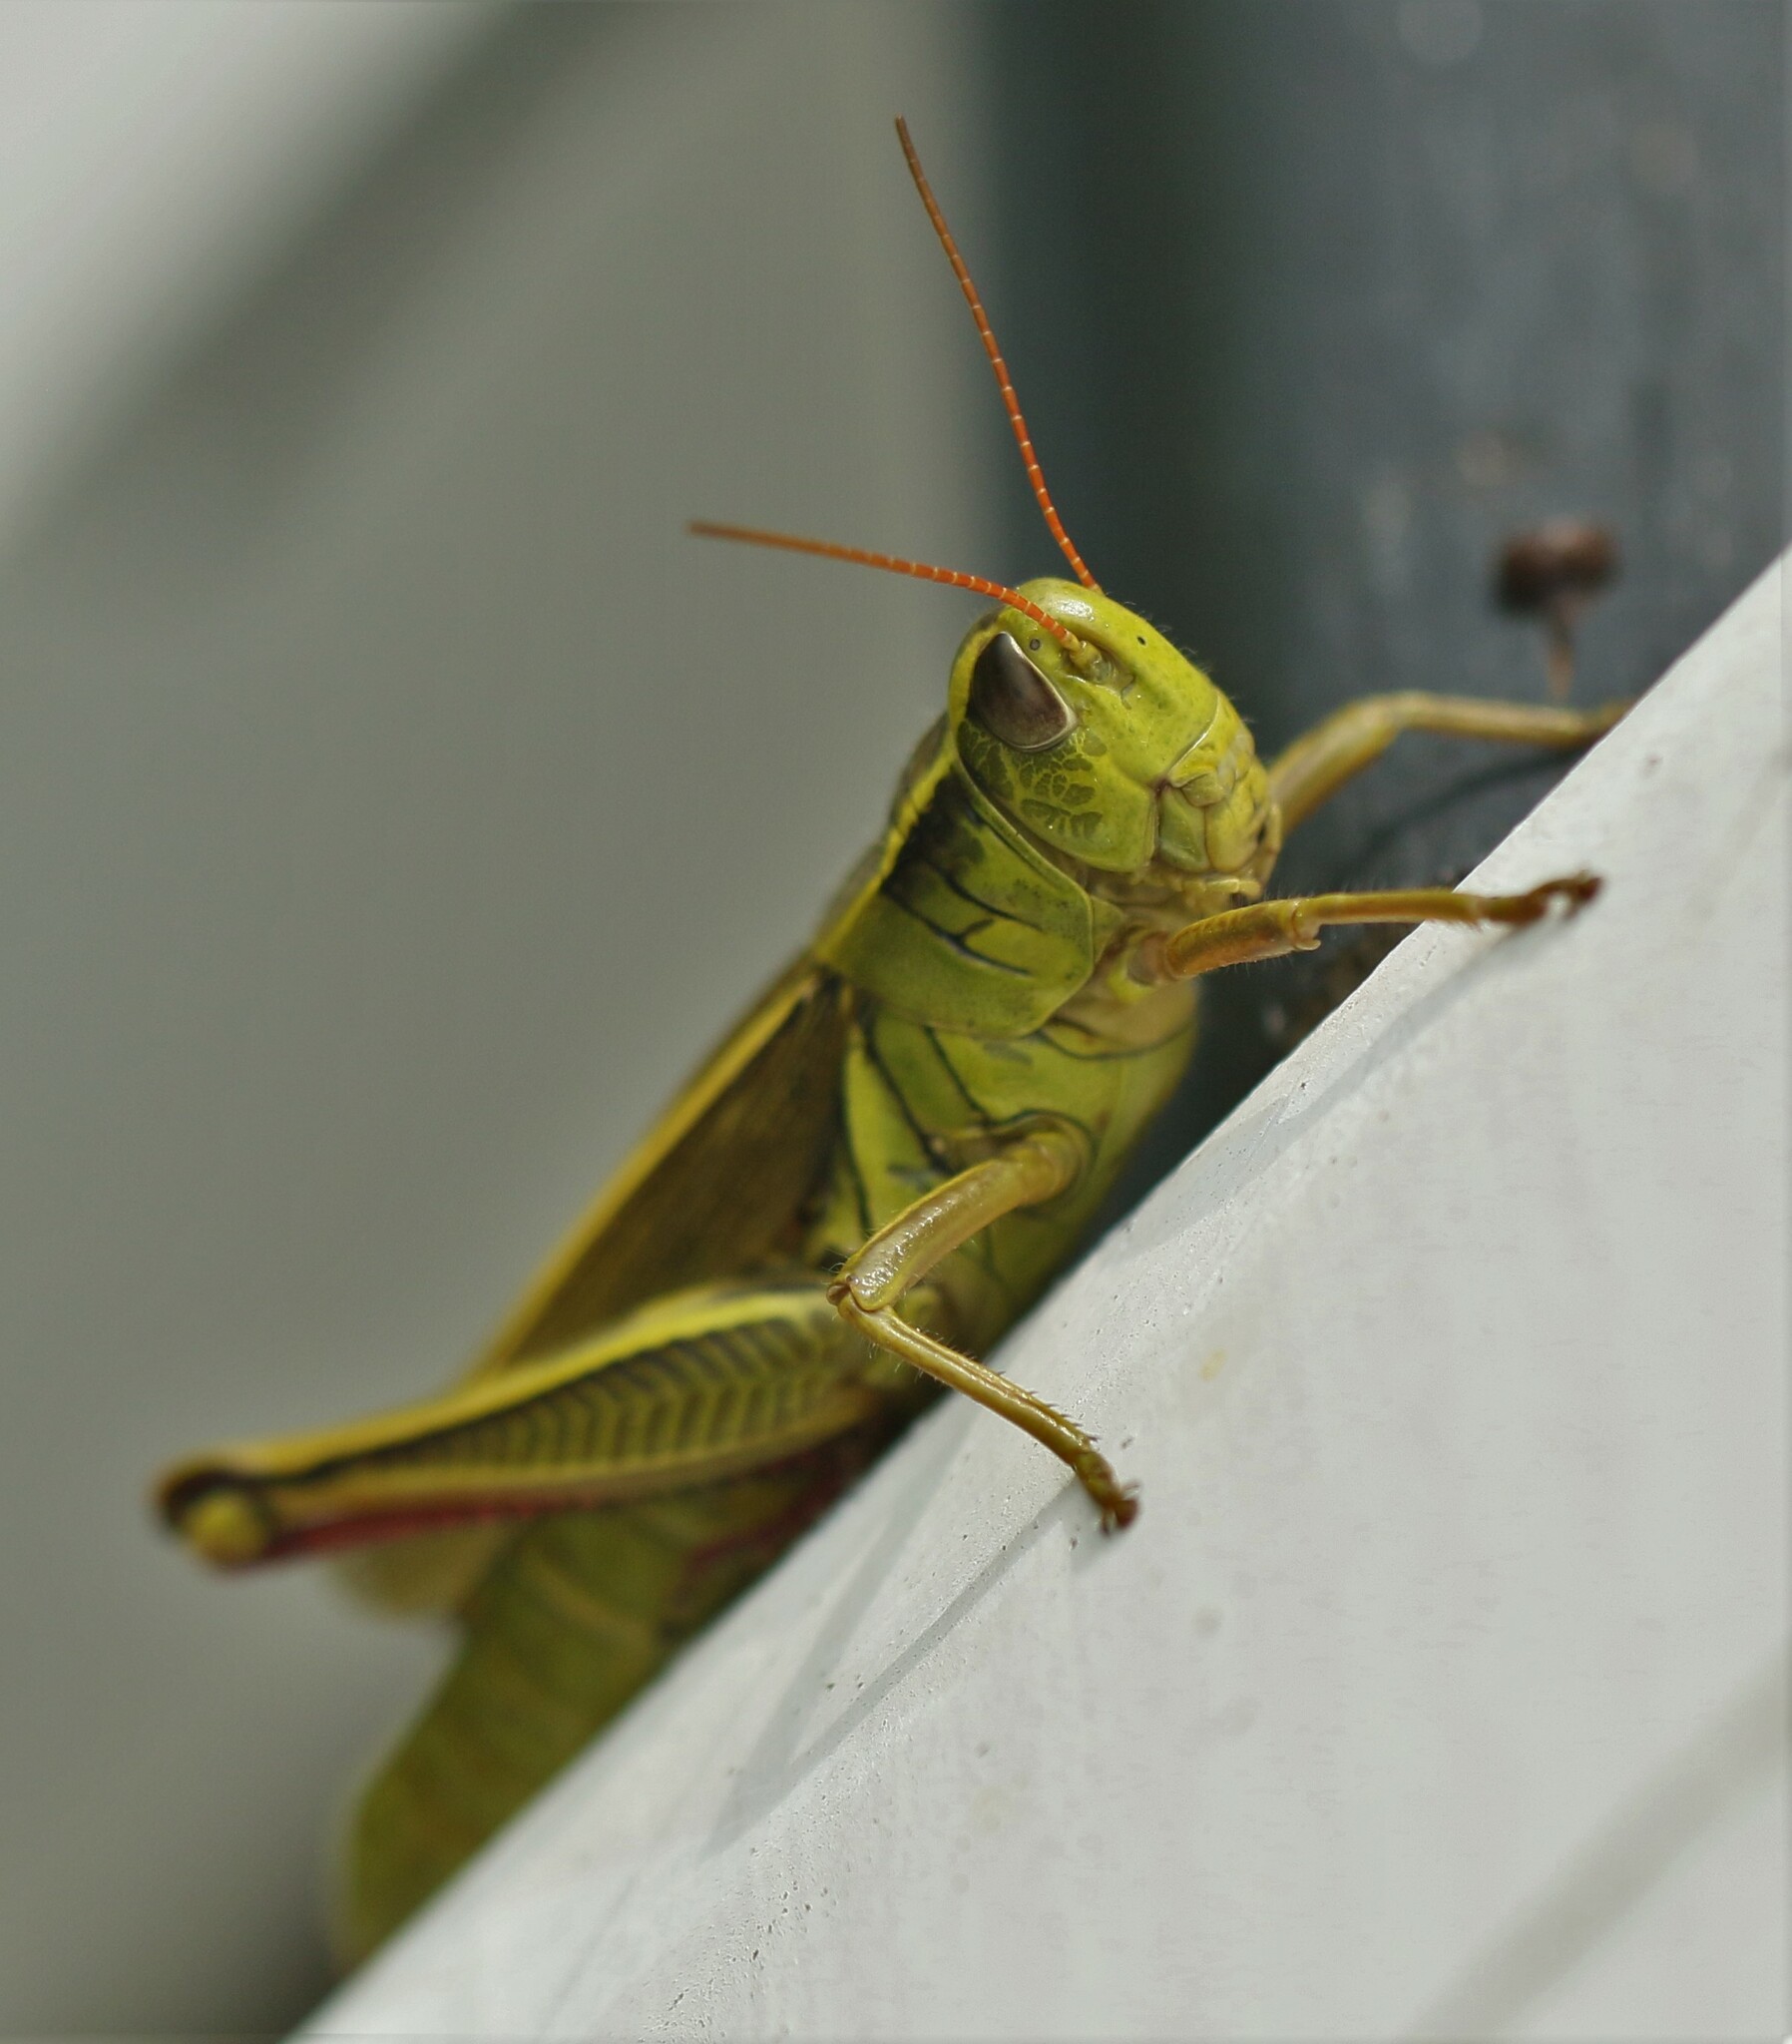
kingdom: Animalia
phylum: Arthropoda
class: Insecta
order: Orthoptera
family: Acrididae
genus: Melanoplus
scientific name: Melanoplus bivittatus
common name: Two-striped grasshopper
